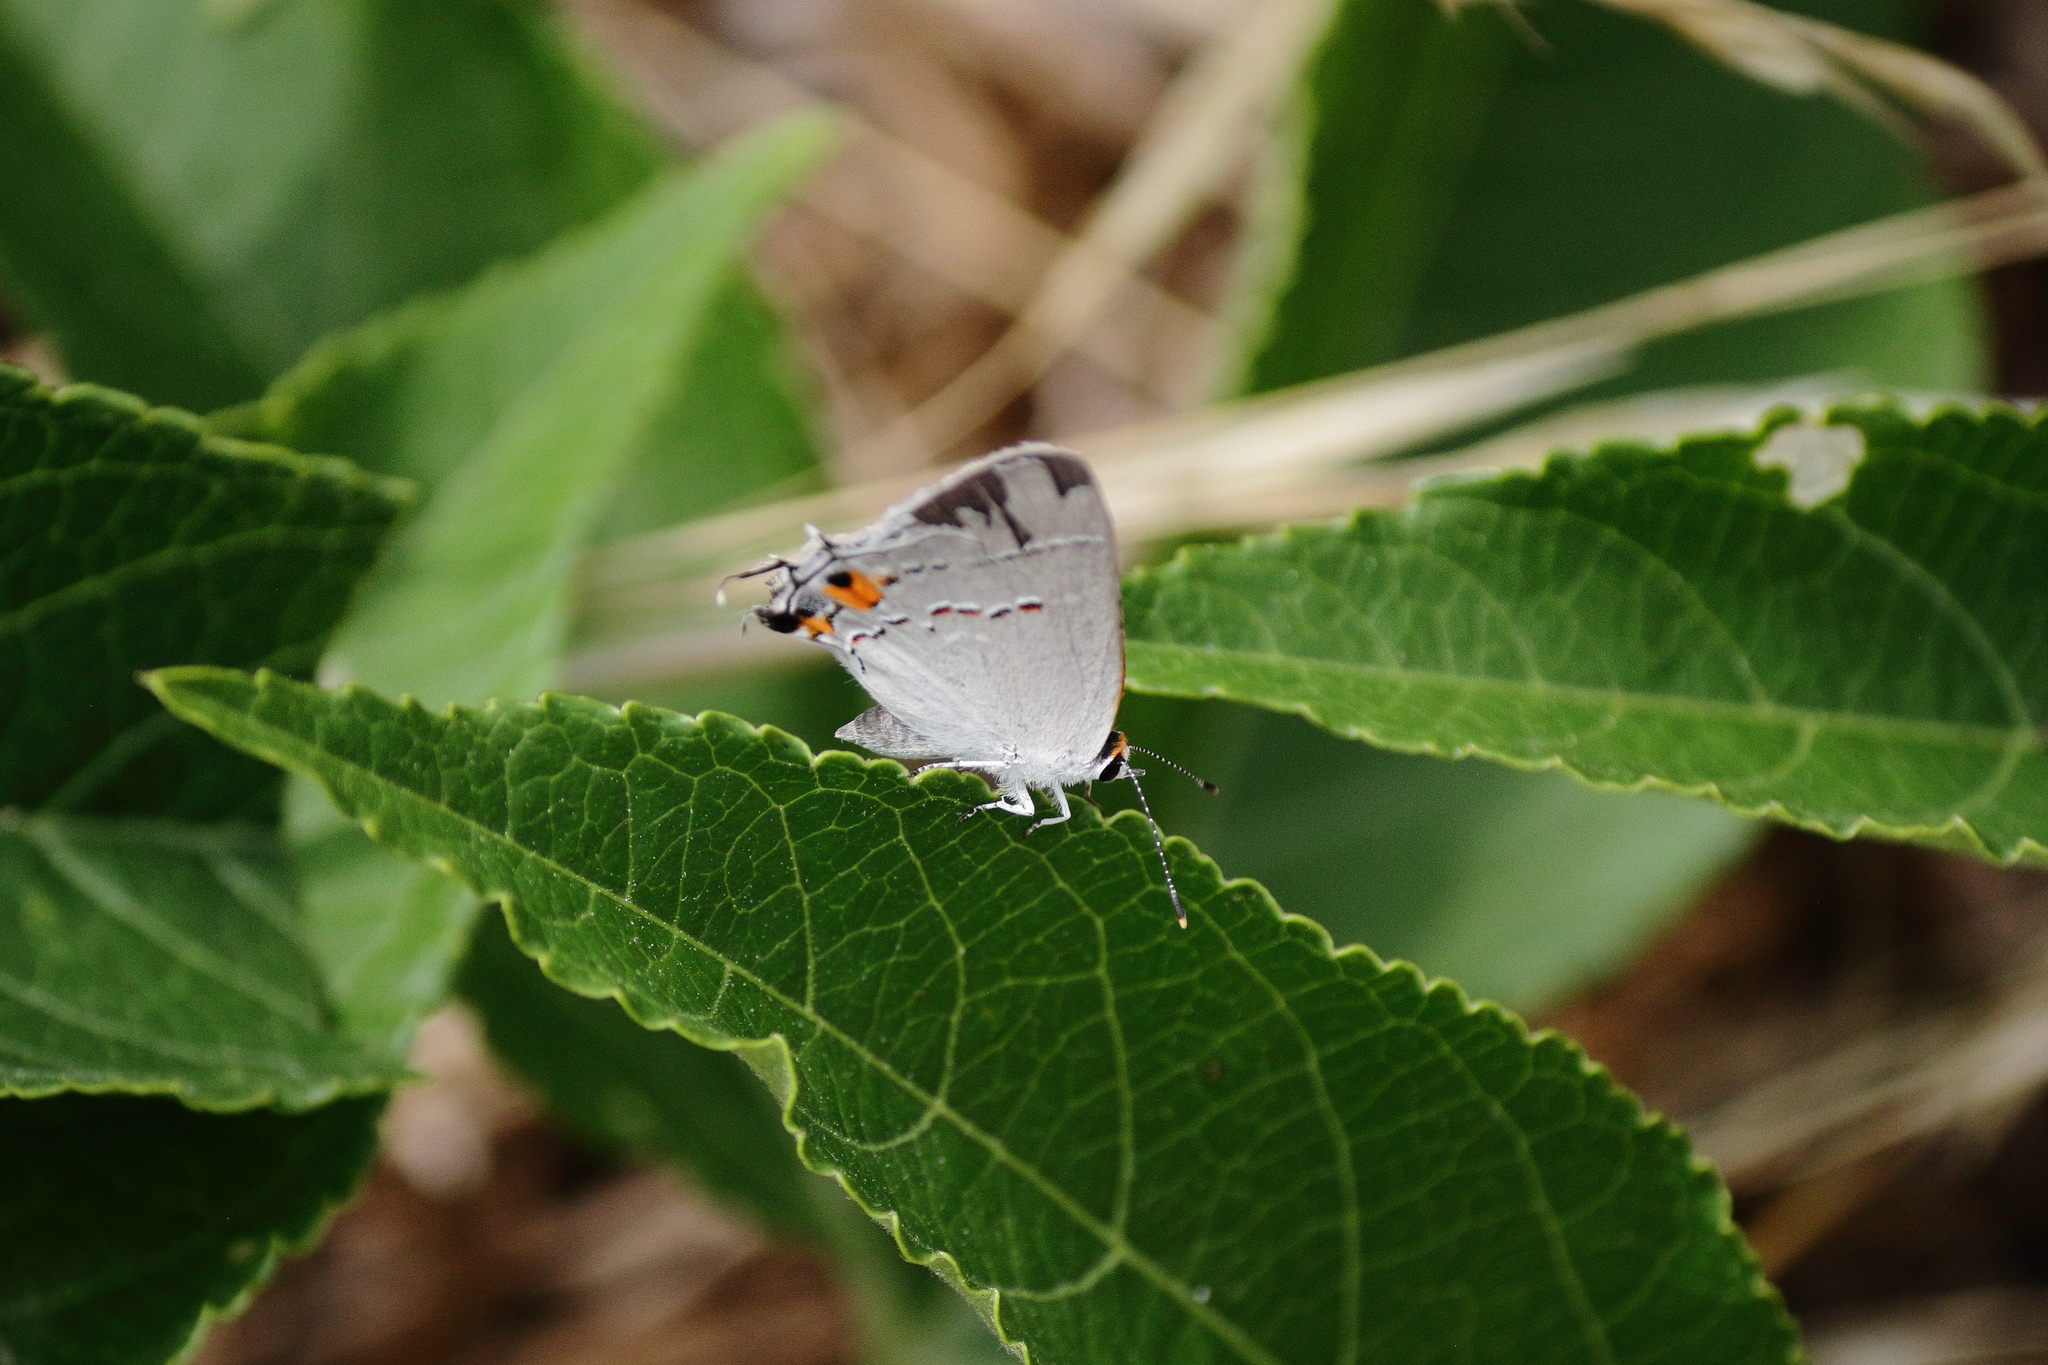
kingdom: Animalia
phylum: Arthropoda
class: Insecta
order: Lepidoptera
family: Lycaenidae
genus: Strymon
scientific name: Strymon melinus
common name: Gray hairstreak
